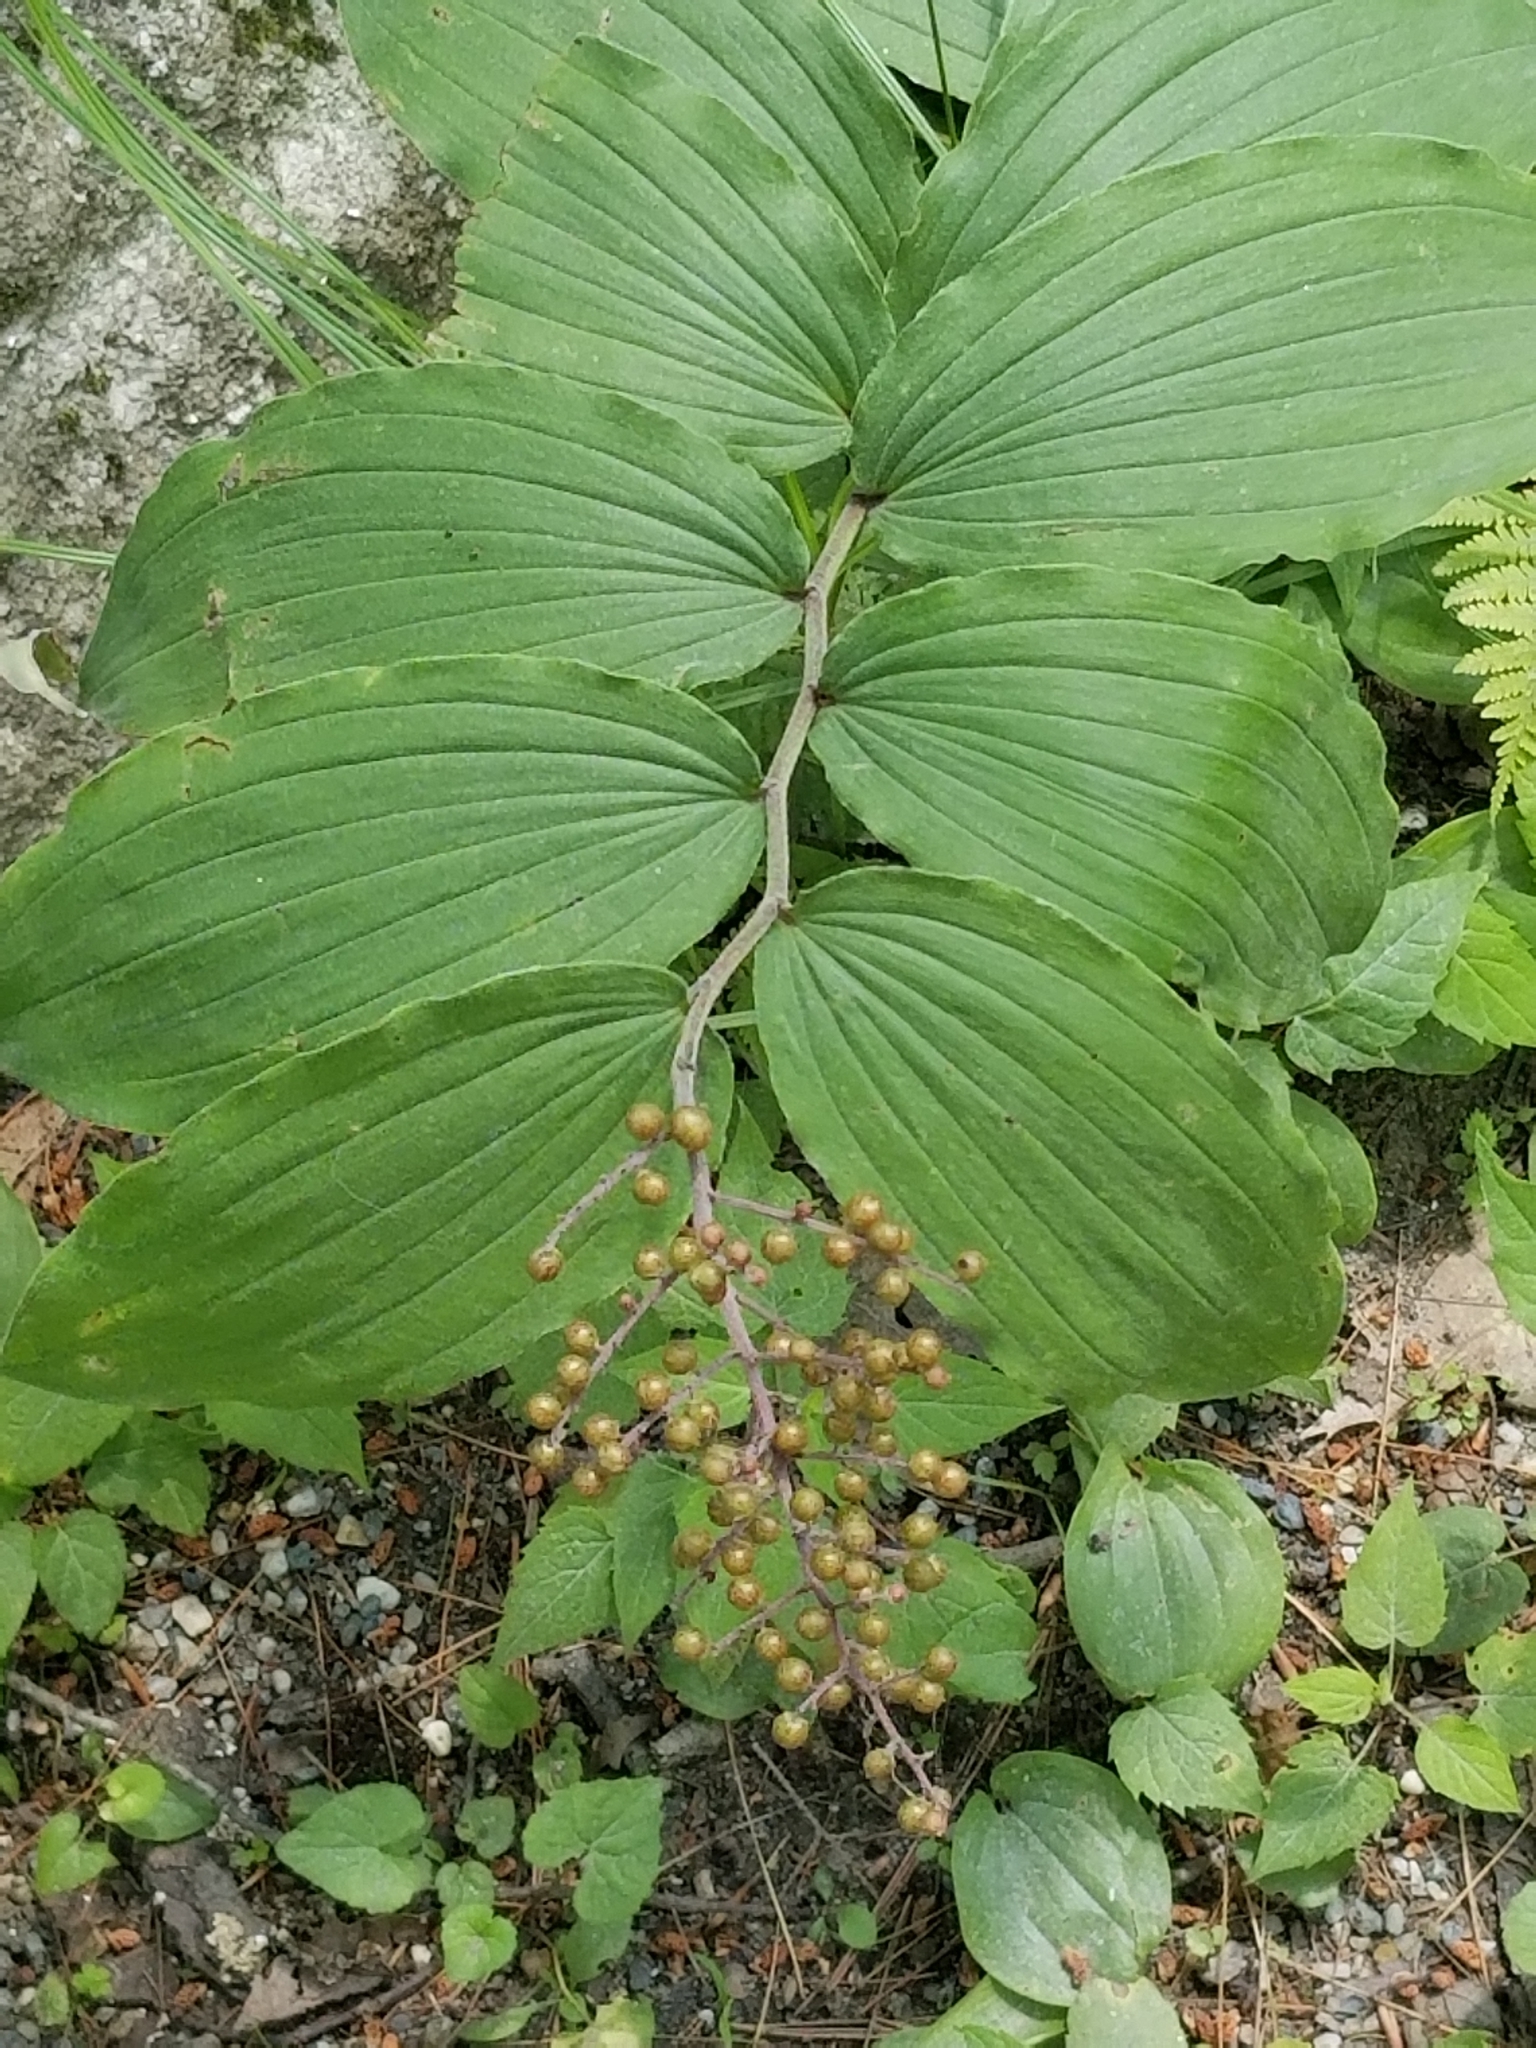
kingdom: Plantae
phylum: Tracheophyta
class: Liliopsida
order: Asparagales
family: Asparagaceae
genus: Maianthemum
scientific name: Maianthemum racemosum
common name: False spikenard
